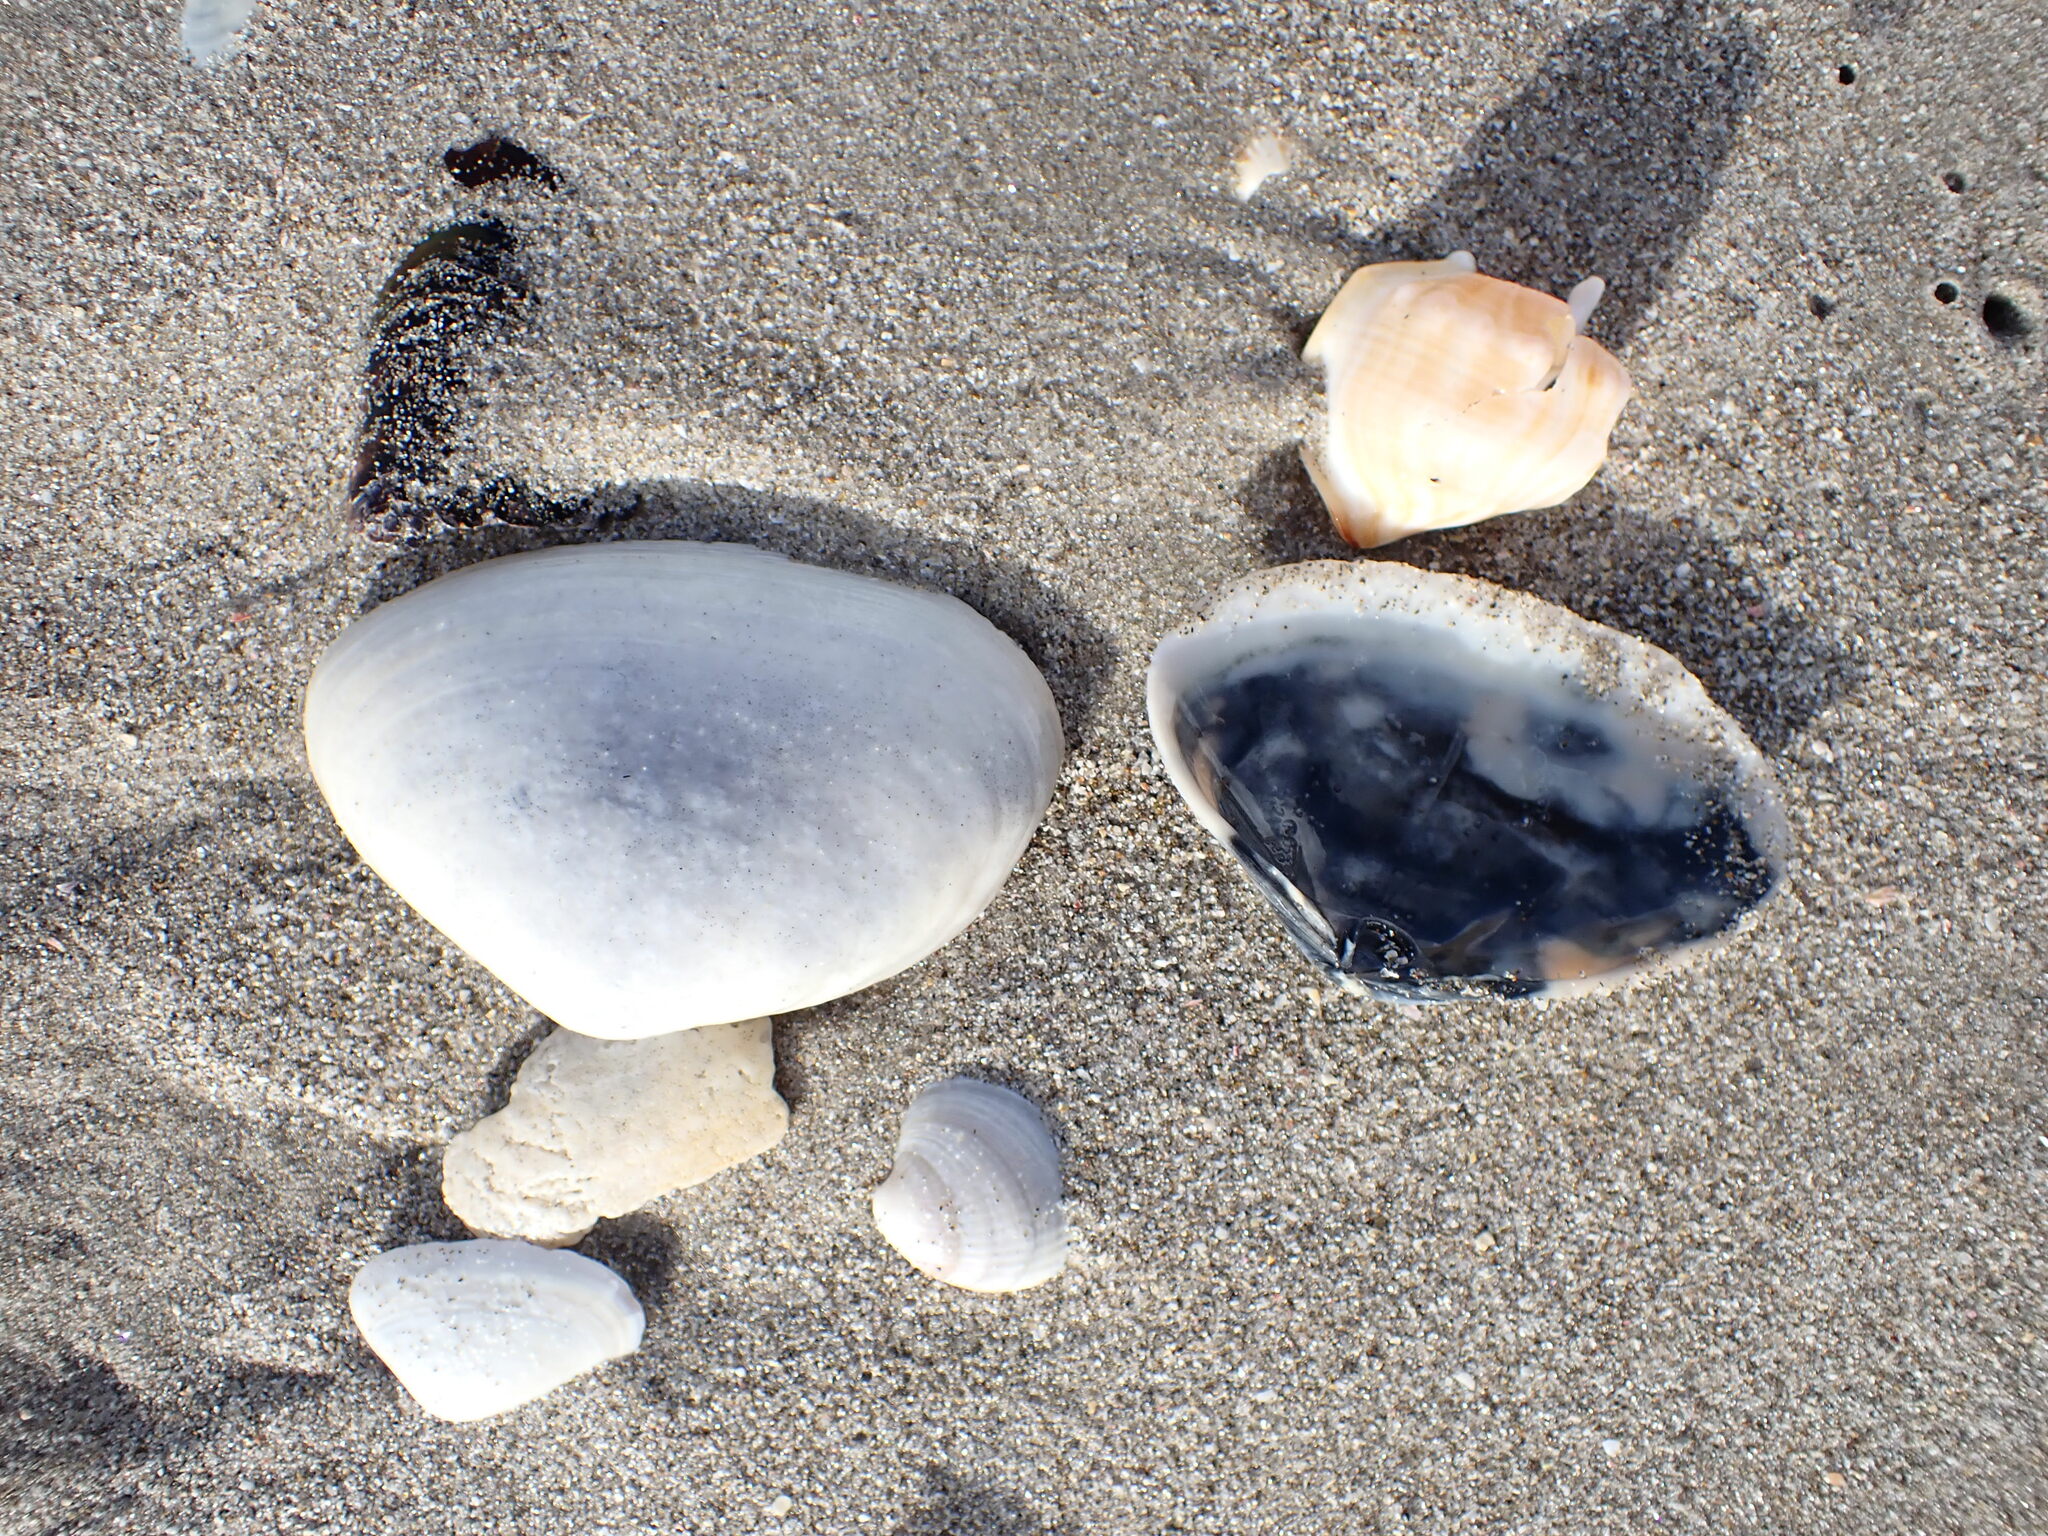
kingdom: Animalia
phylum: Mollusca
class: Bivalvia
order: Venerida
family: Mactridae
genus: Oxyperas
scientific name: Oxyperas elongatum
